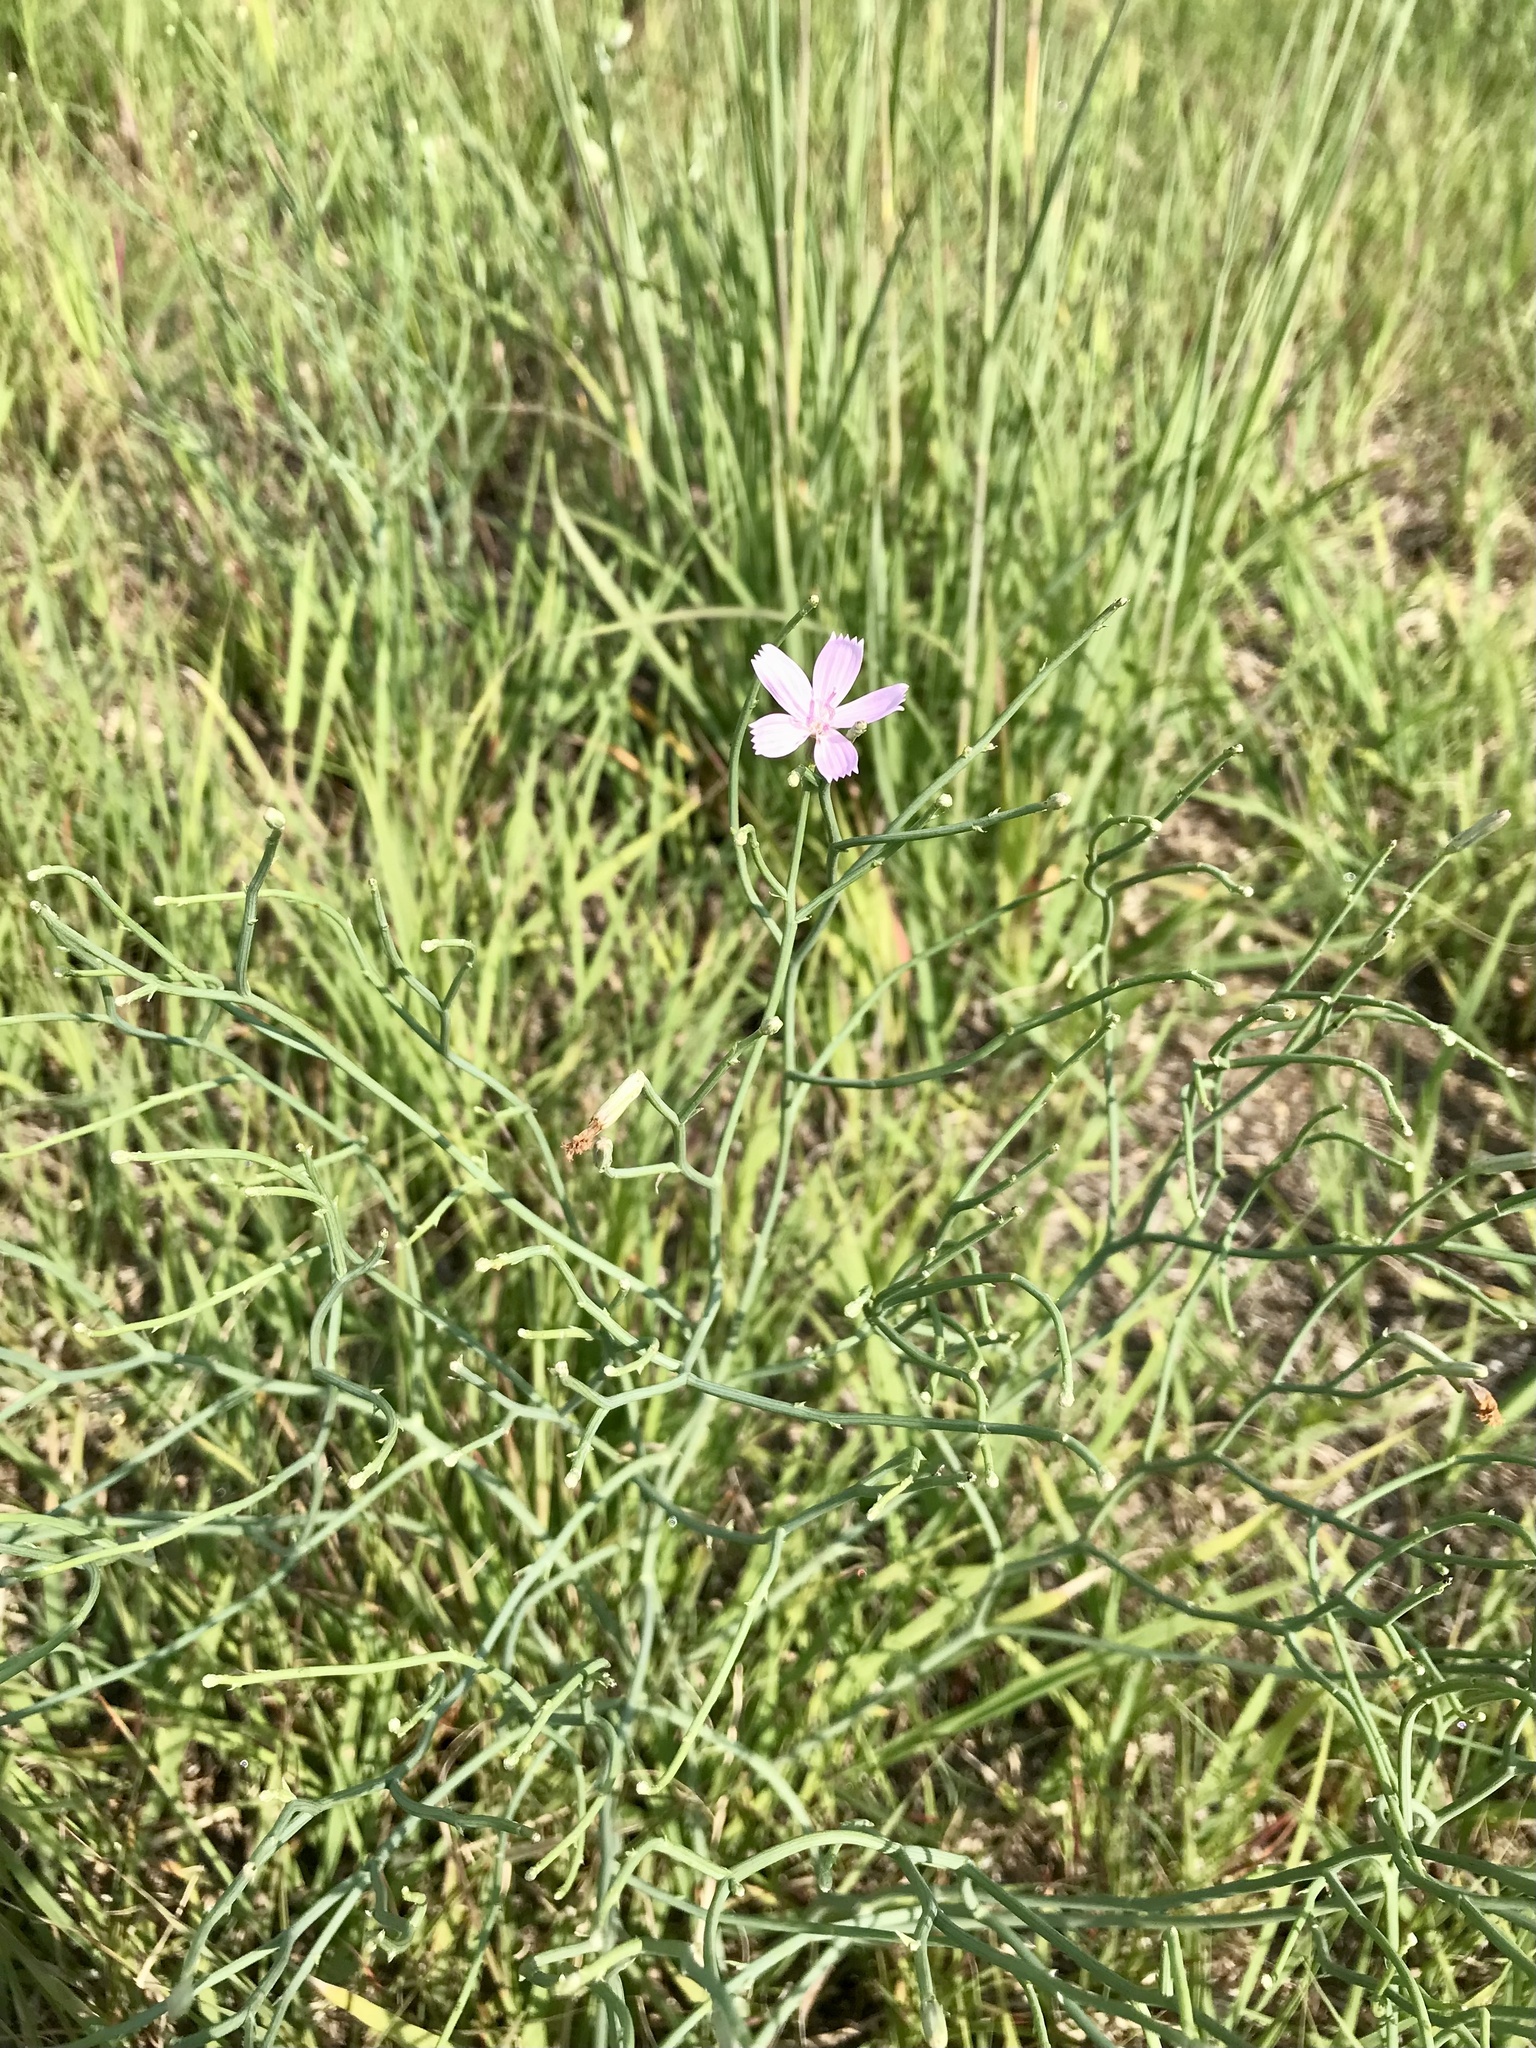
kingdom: Plantae
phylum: Tracheophyta
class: Magnoliopsida
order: Asterales
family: Asteraceae
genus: Lygodesmia
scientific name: Lygodesmia juncea
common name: Common skeletonweed
